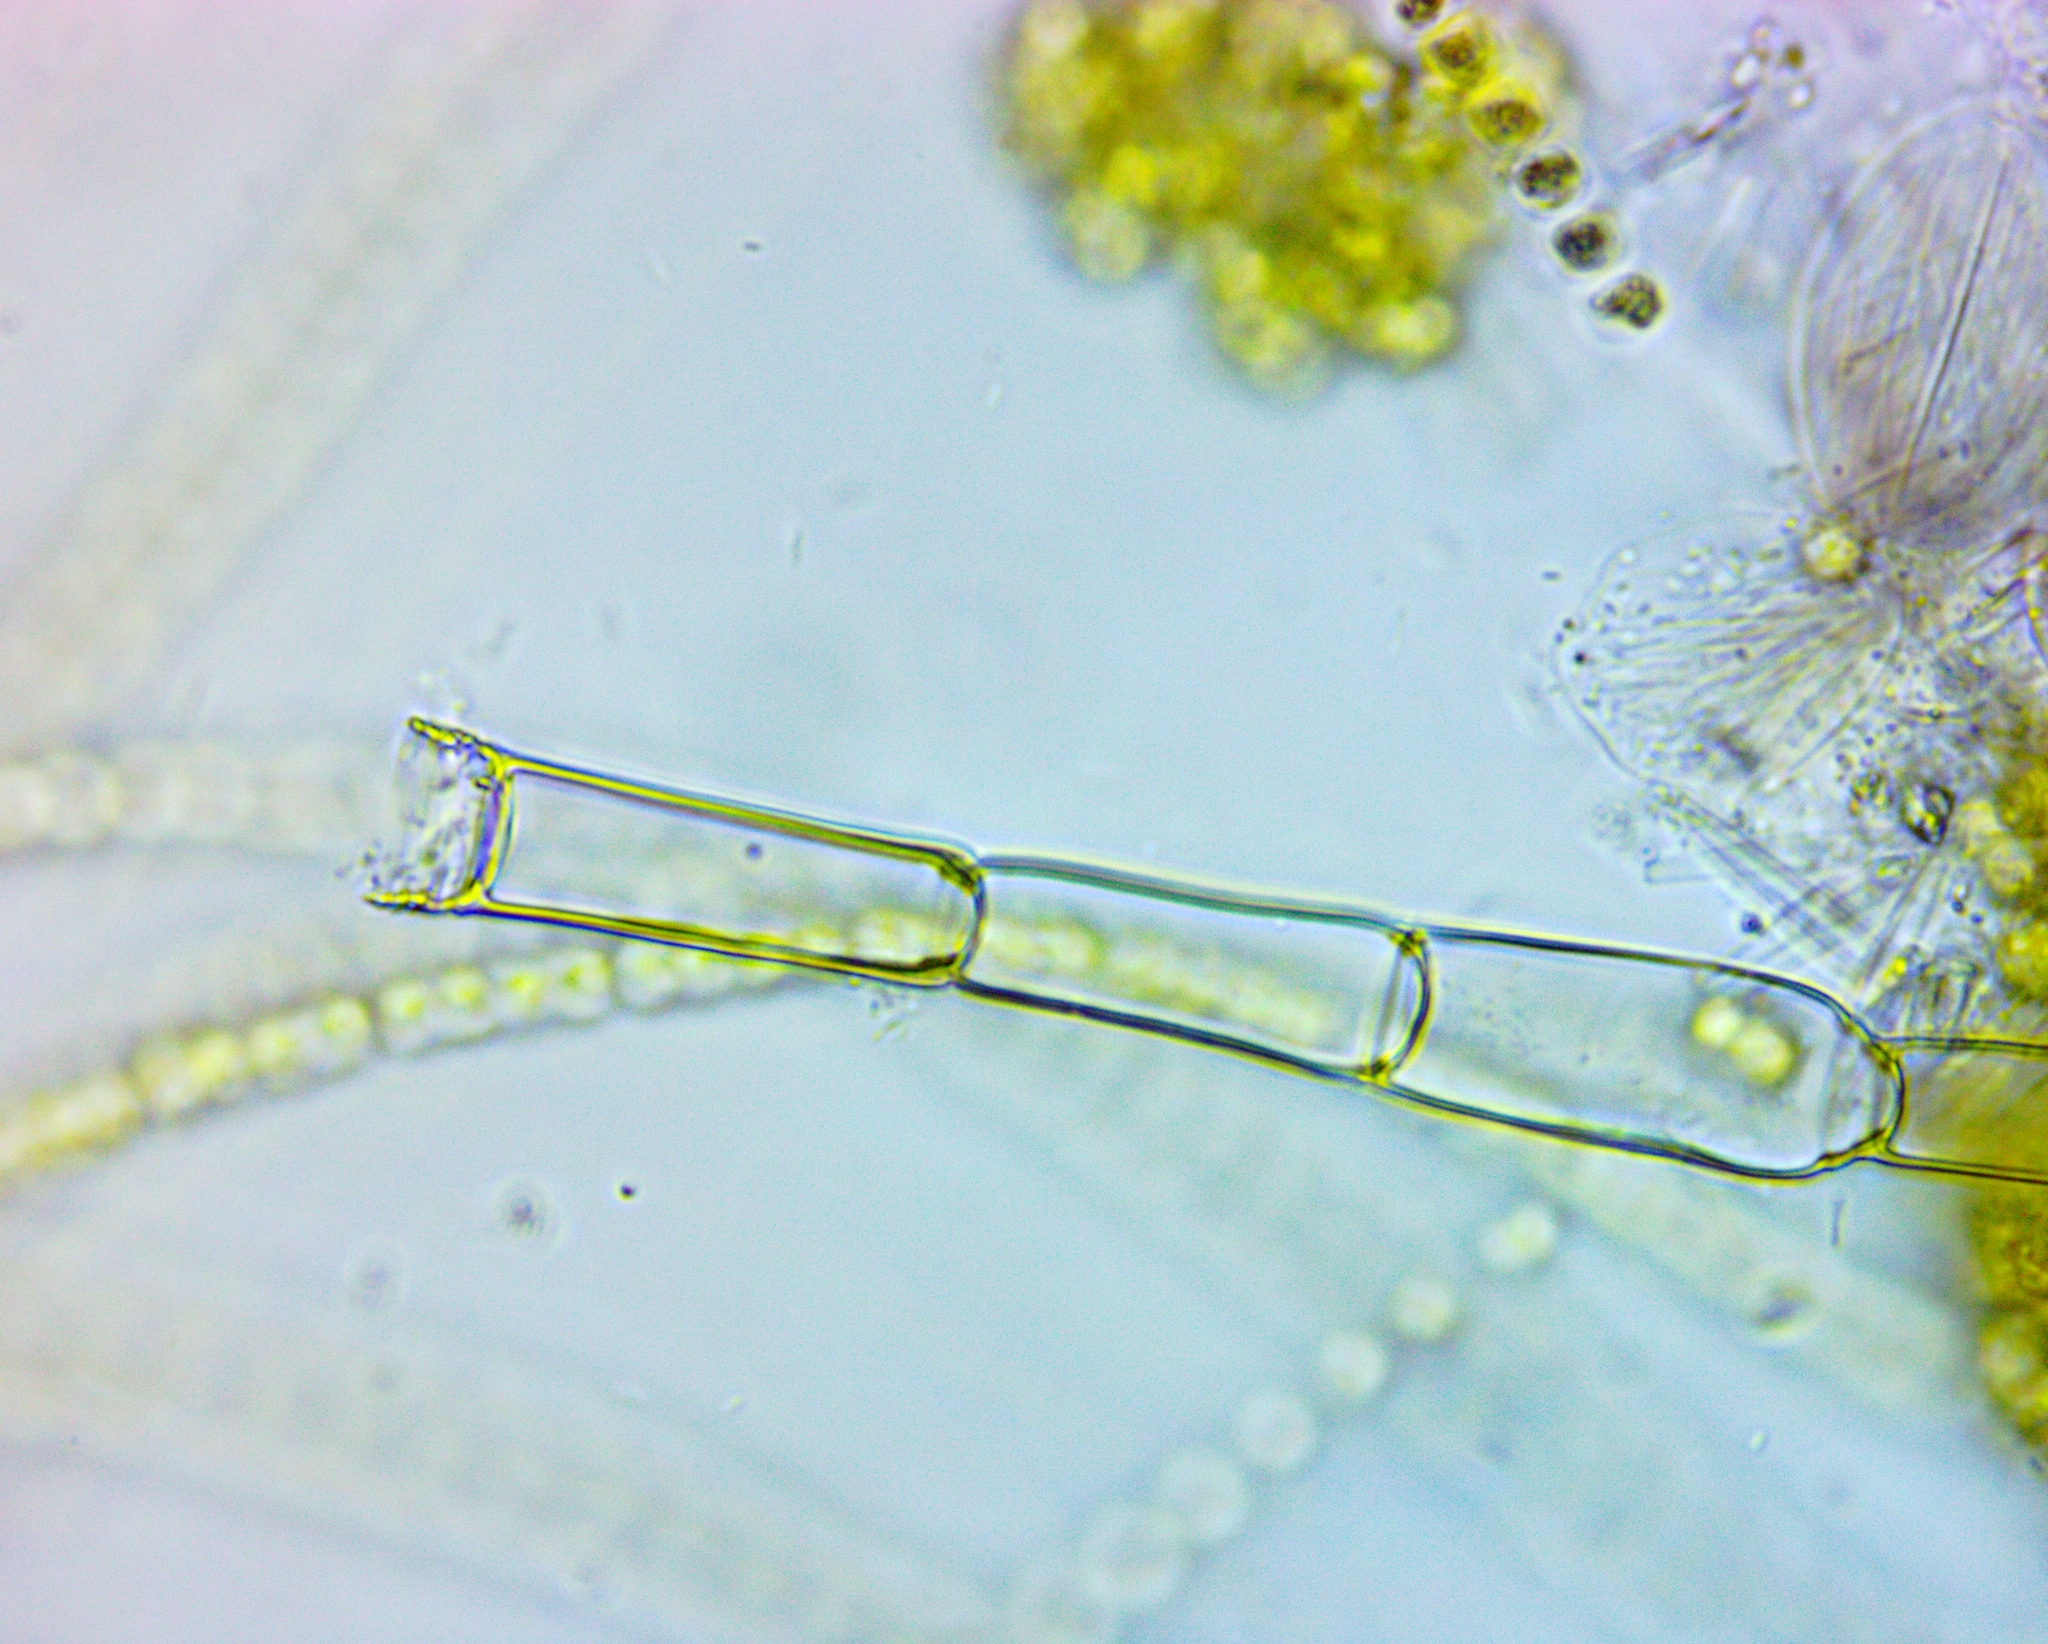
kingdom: Plantae
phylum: Chlorophyta
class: Chlorophyceae
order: Oedogoniales
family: Oedogoniaceae
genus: Oedogonium
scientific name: Oedogonium
